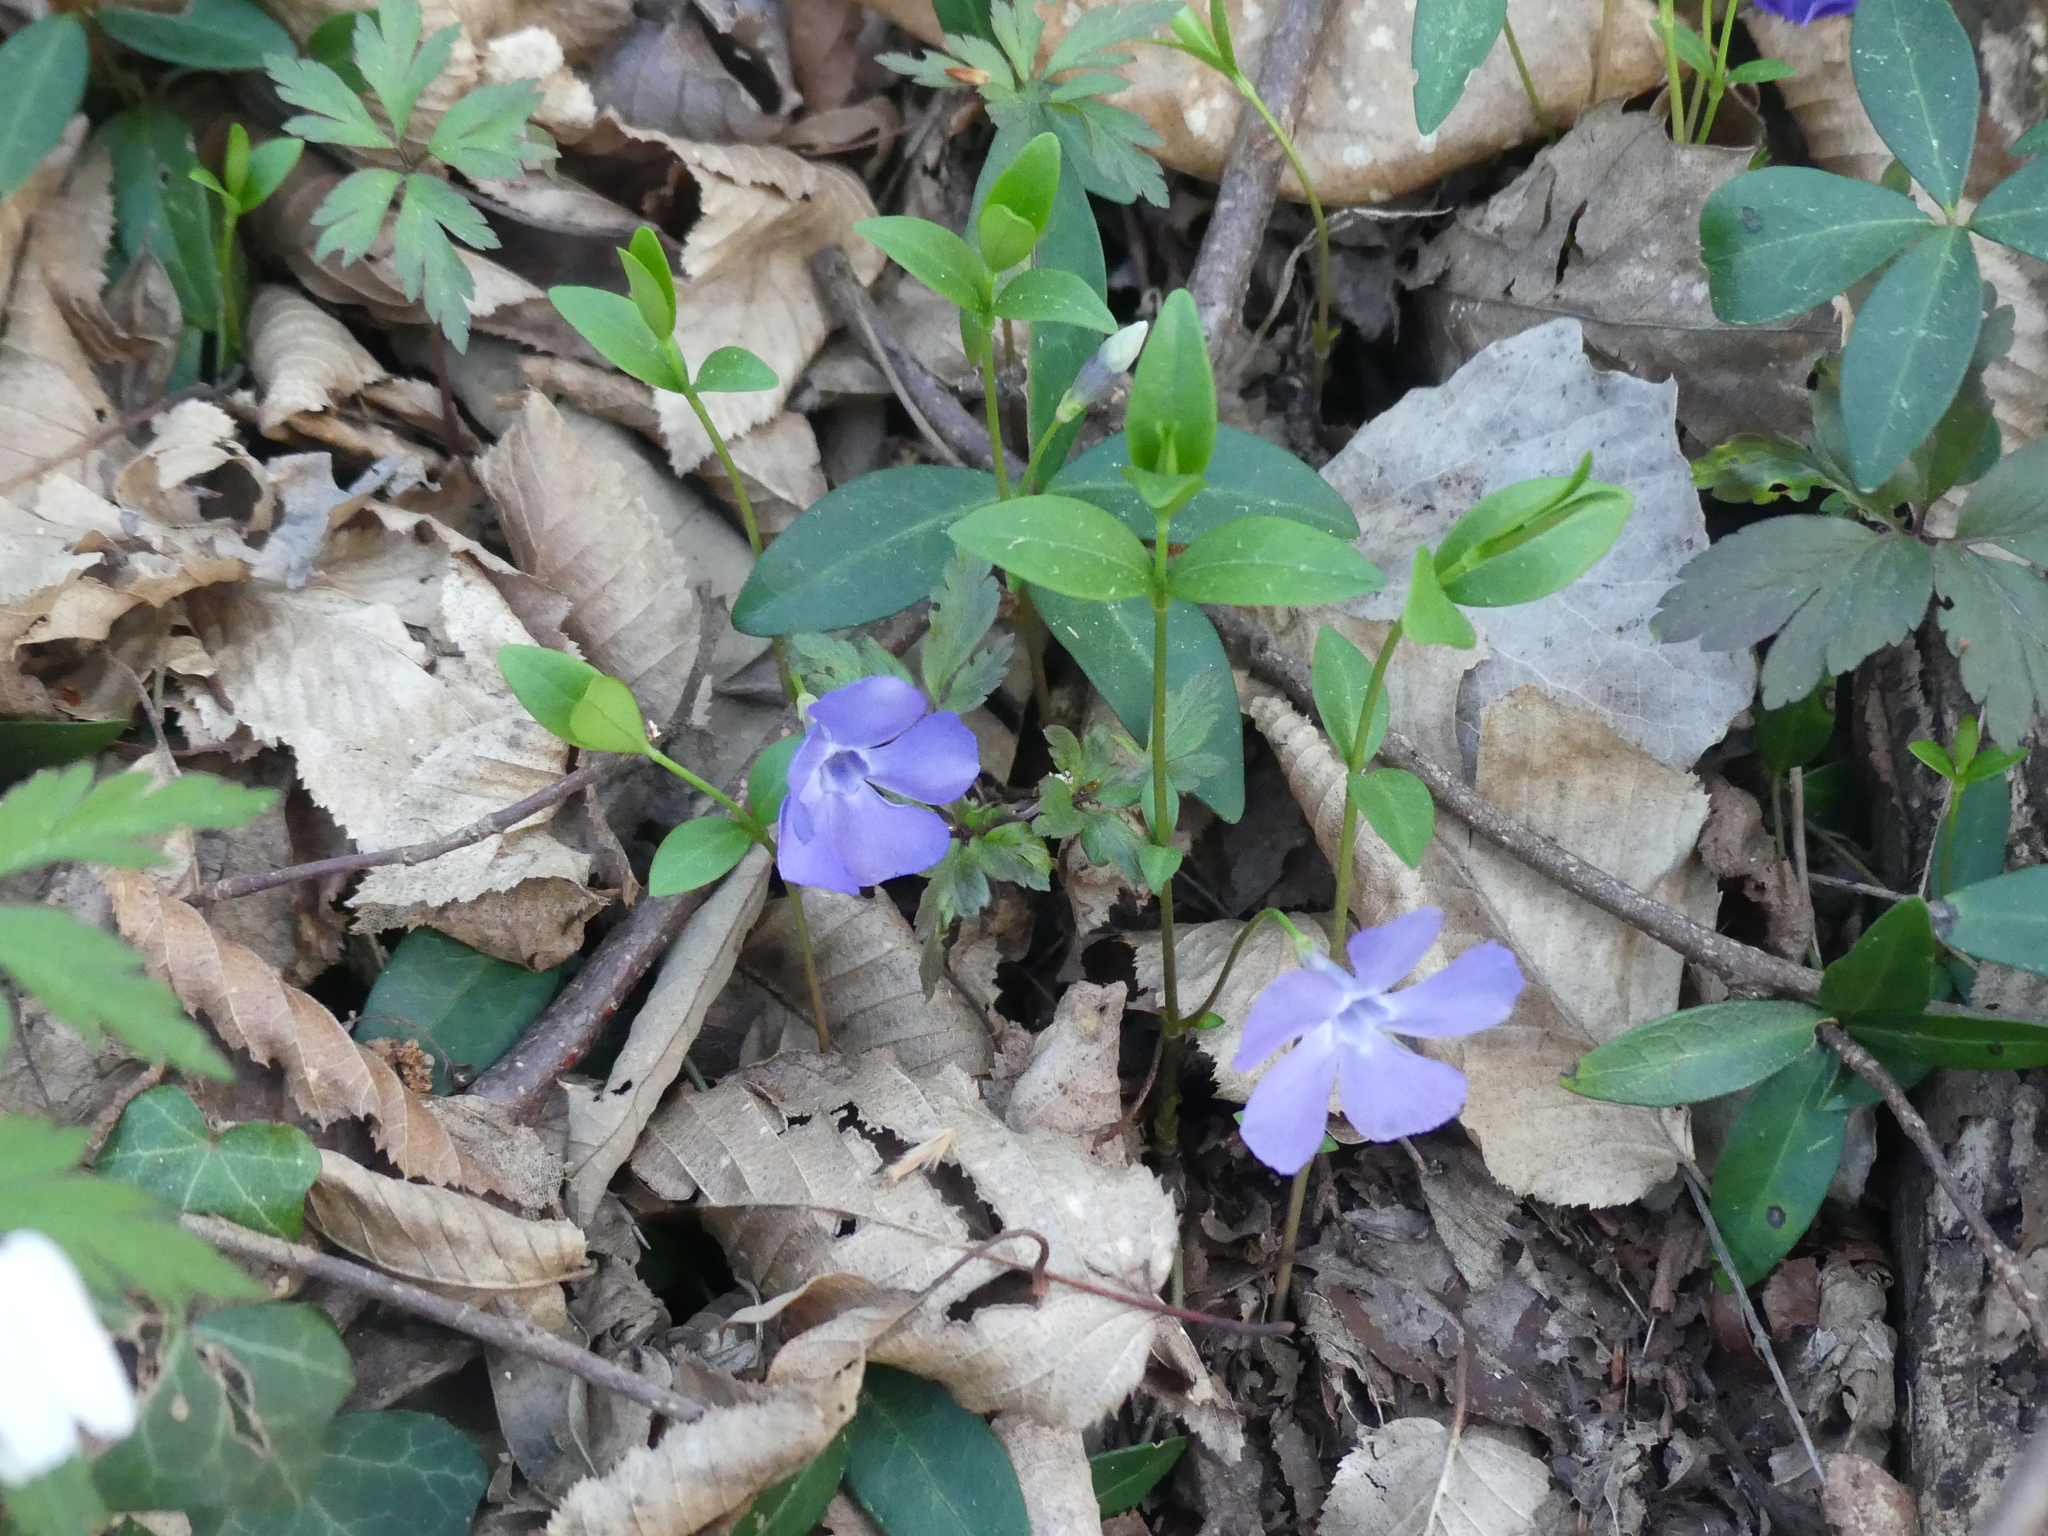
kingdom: Plantae
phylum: Tracheophyta
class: Magnoliopsida
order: Gentianales
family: Apocynaceae
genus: Vinca
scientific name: Vinca minor
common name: Lesser periwinkle
